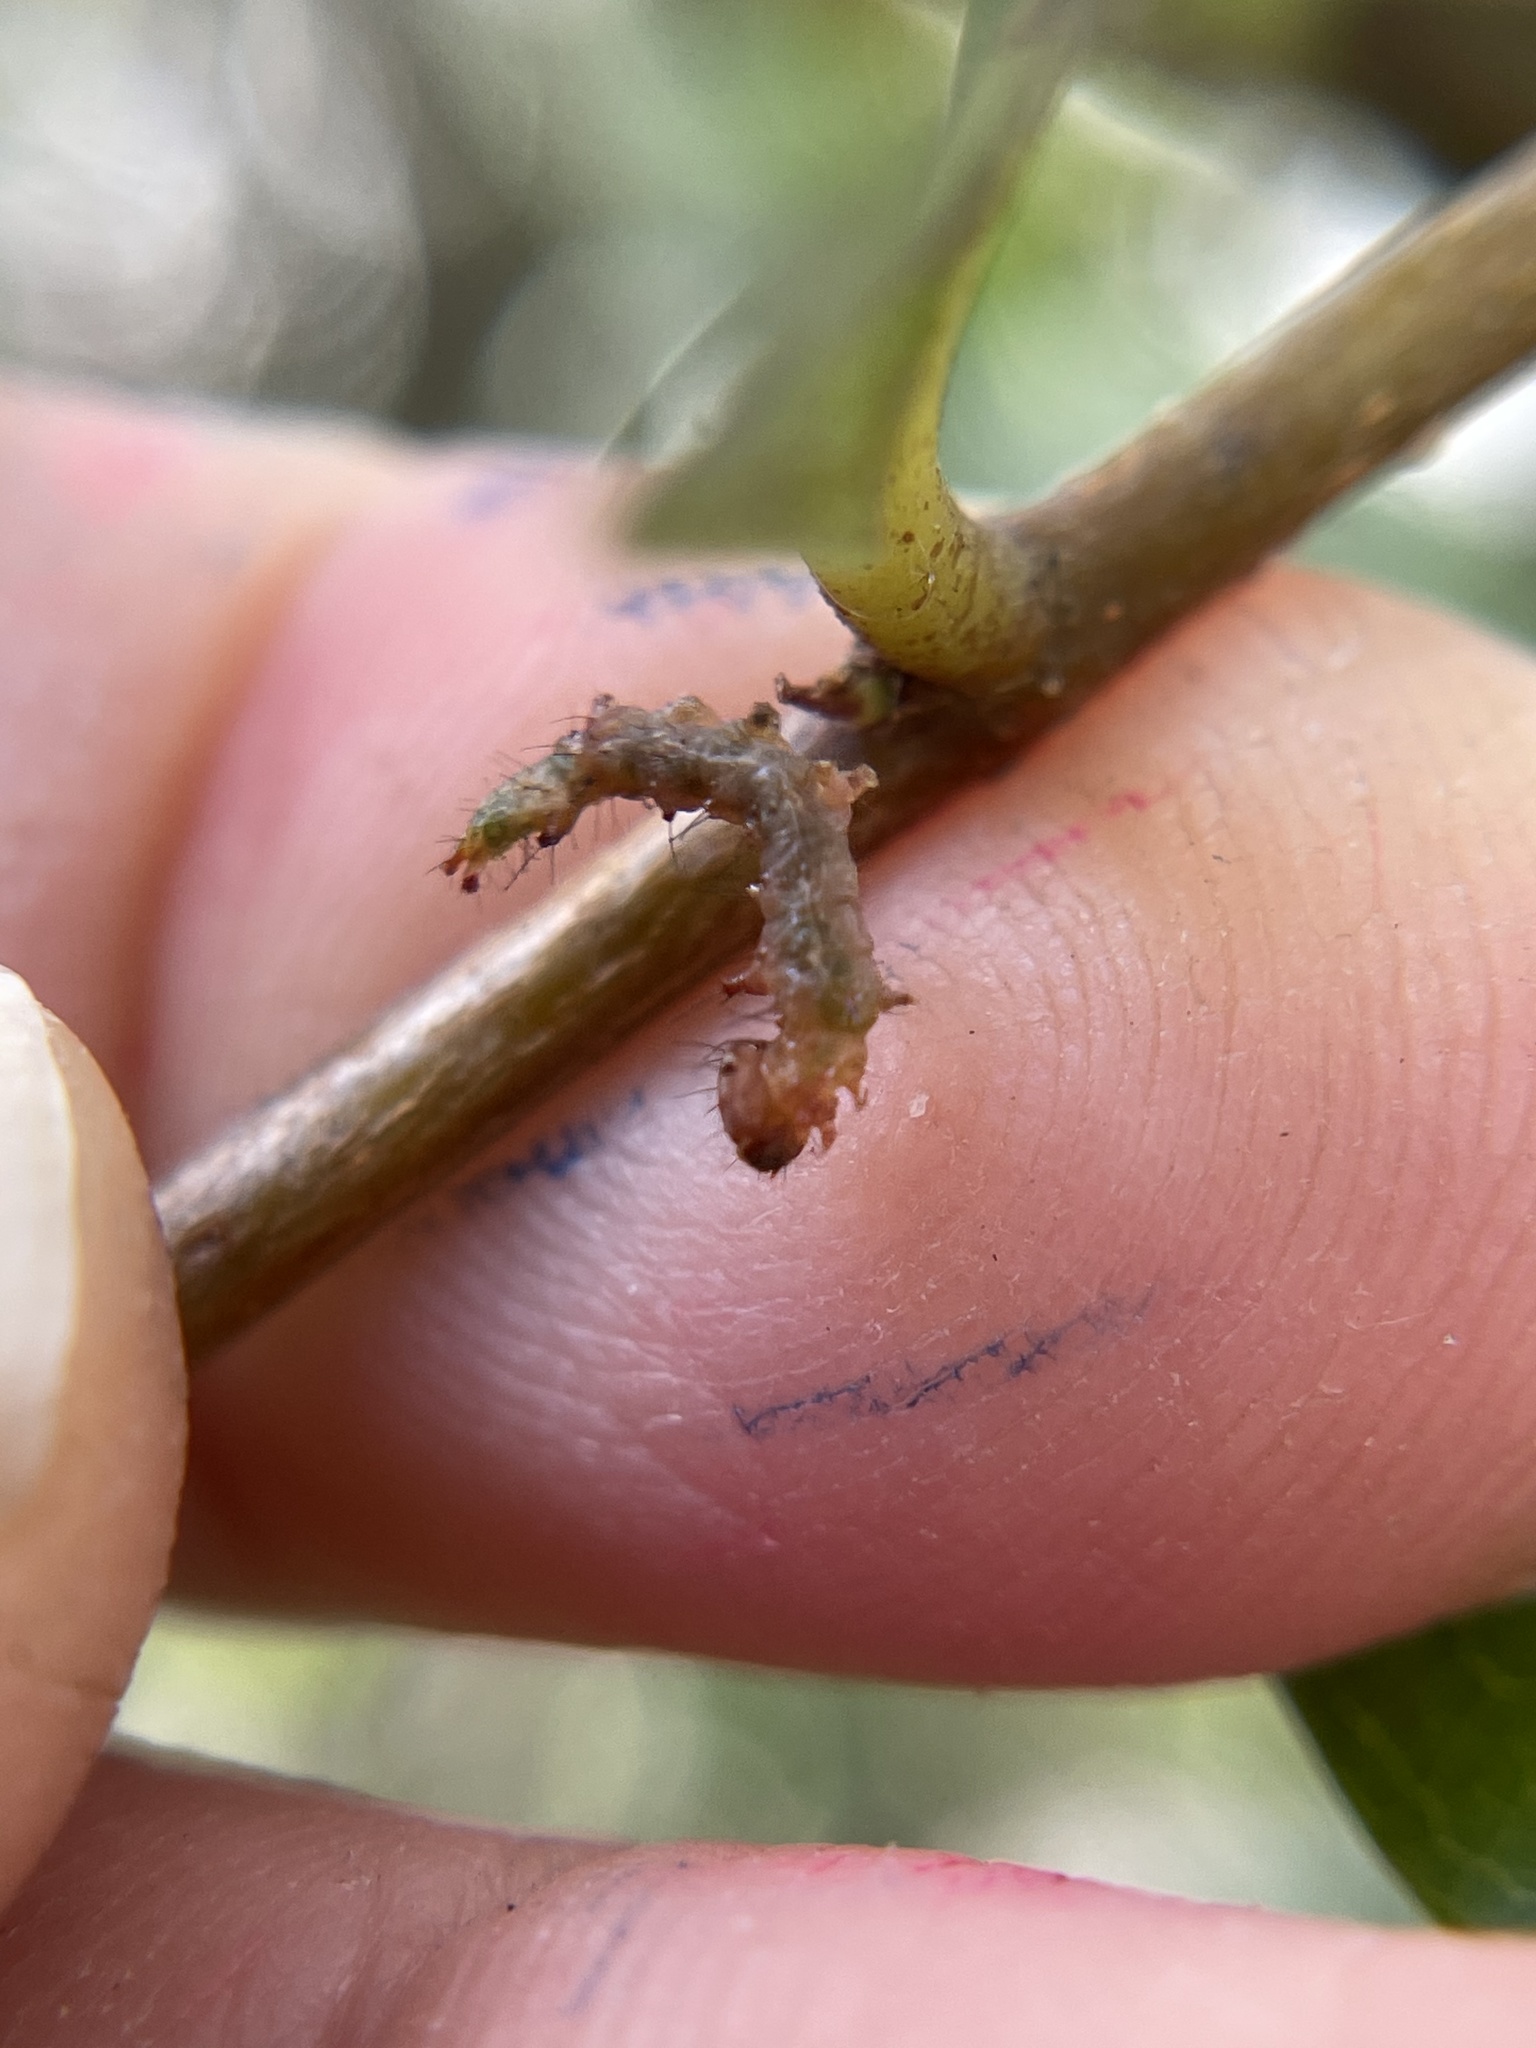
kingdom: Animalia
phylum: Arthropoda
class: Insecta
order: Lepidoptera
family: Notodontidae
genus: Schizura
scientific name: Schizura
